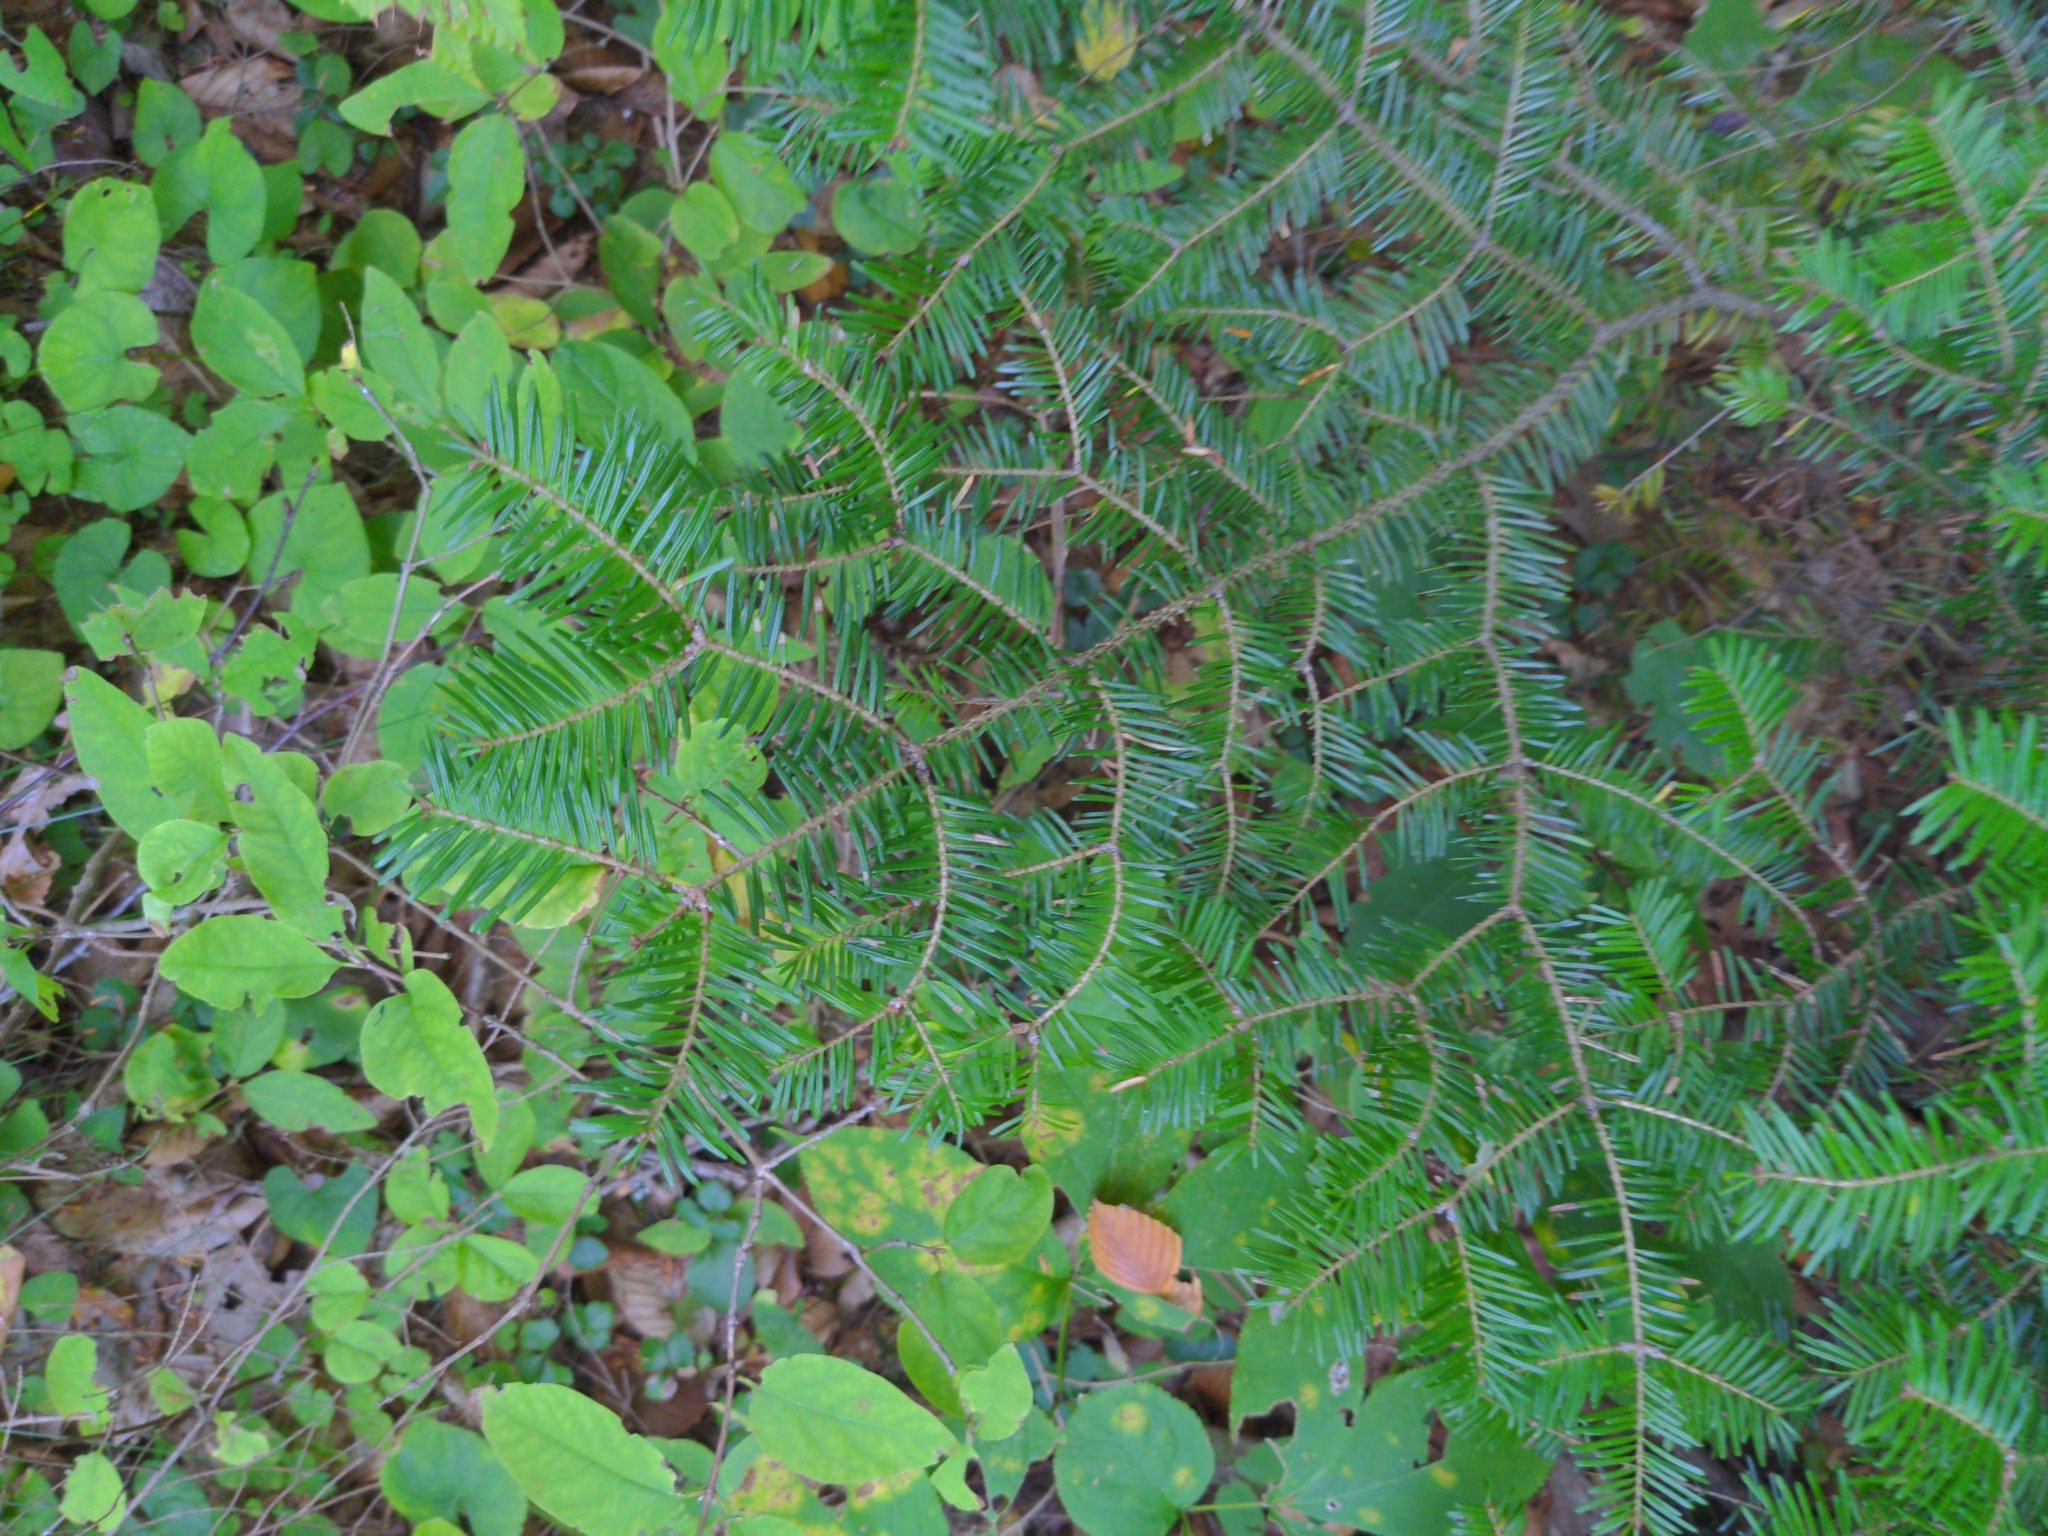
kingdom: Plantae
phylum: Tracheophyta
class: Pinopsida
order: Pinales
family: Pinaceae
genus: Abies
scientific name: Abies balsamea
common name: Balsam fir
